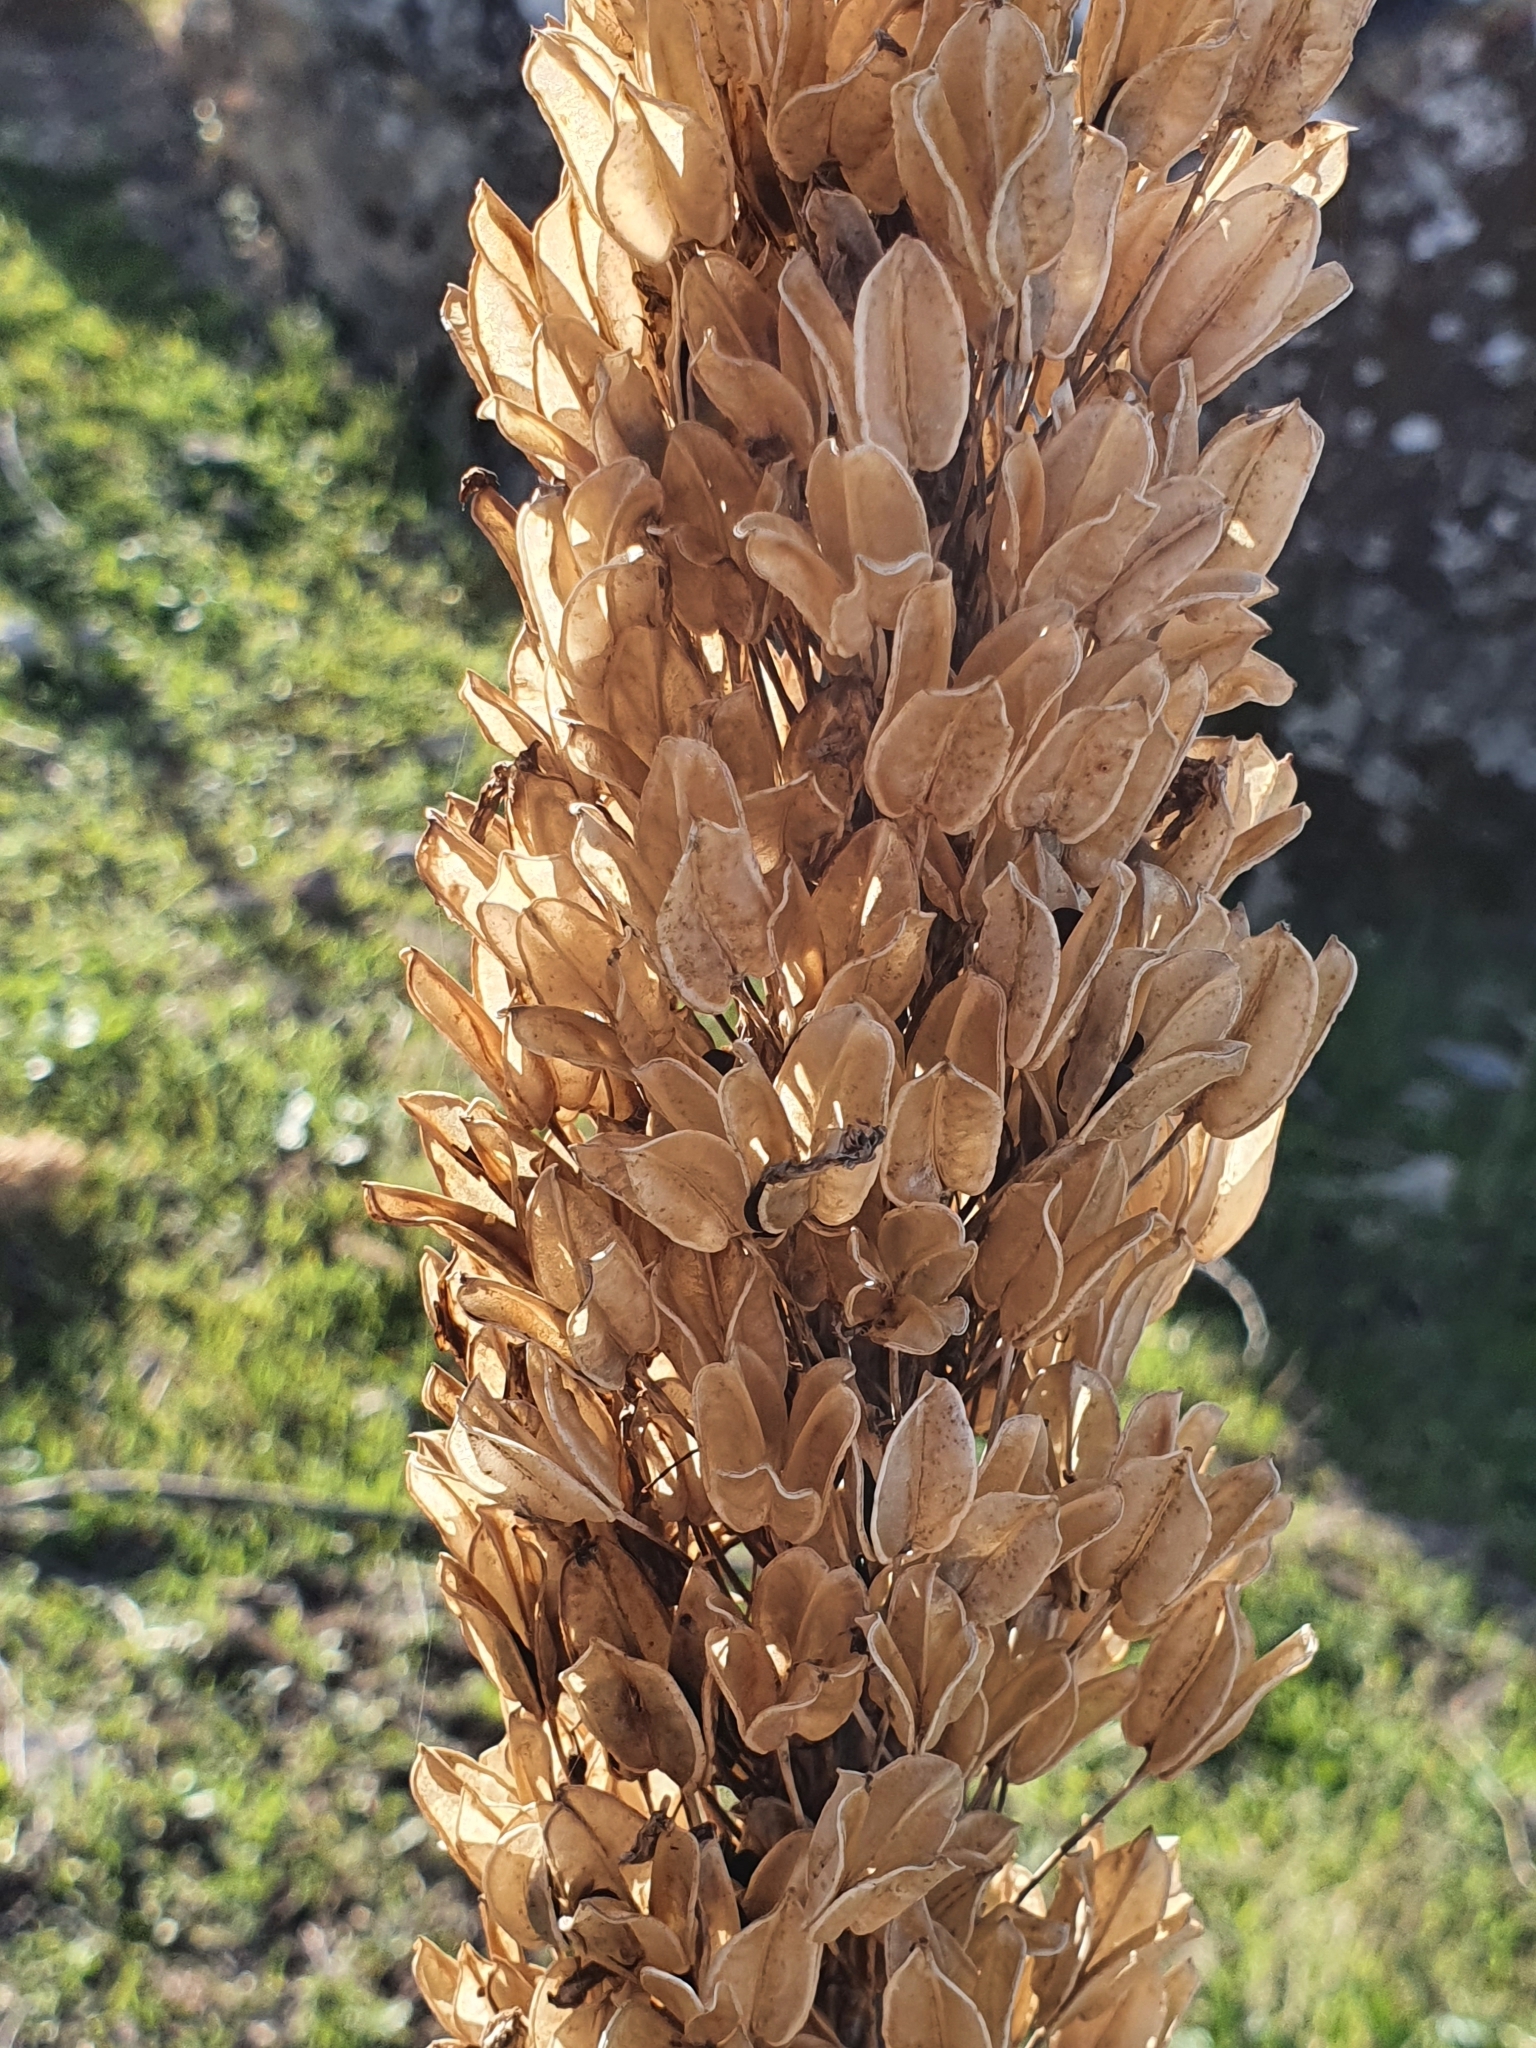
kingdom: Plantae
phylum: Tracheophyta
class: Liliopsida
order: Asparagales
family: Asparagaceae
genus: Drimia
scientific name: Drimia numidica
